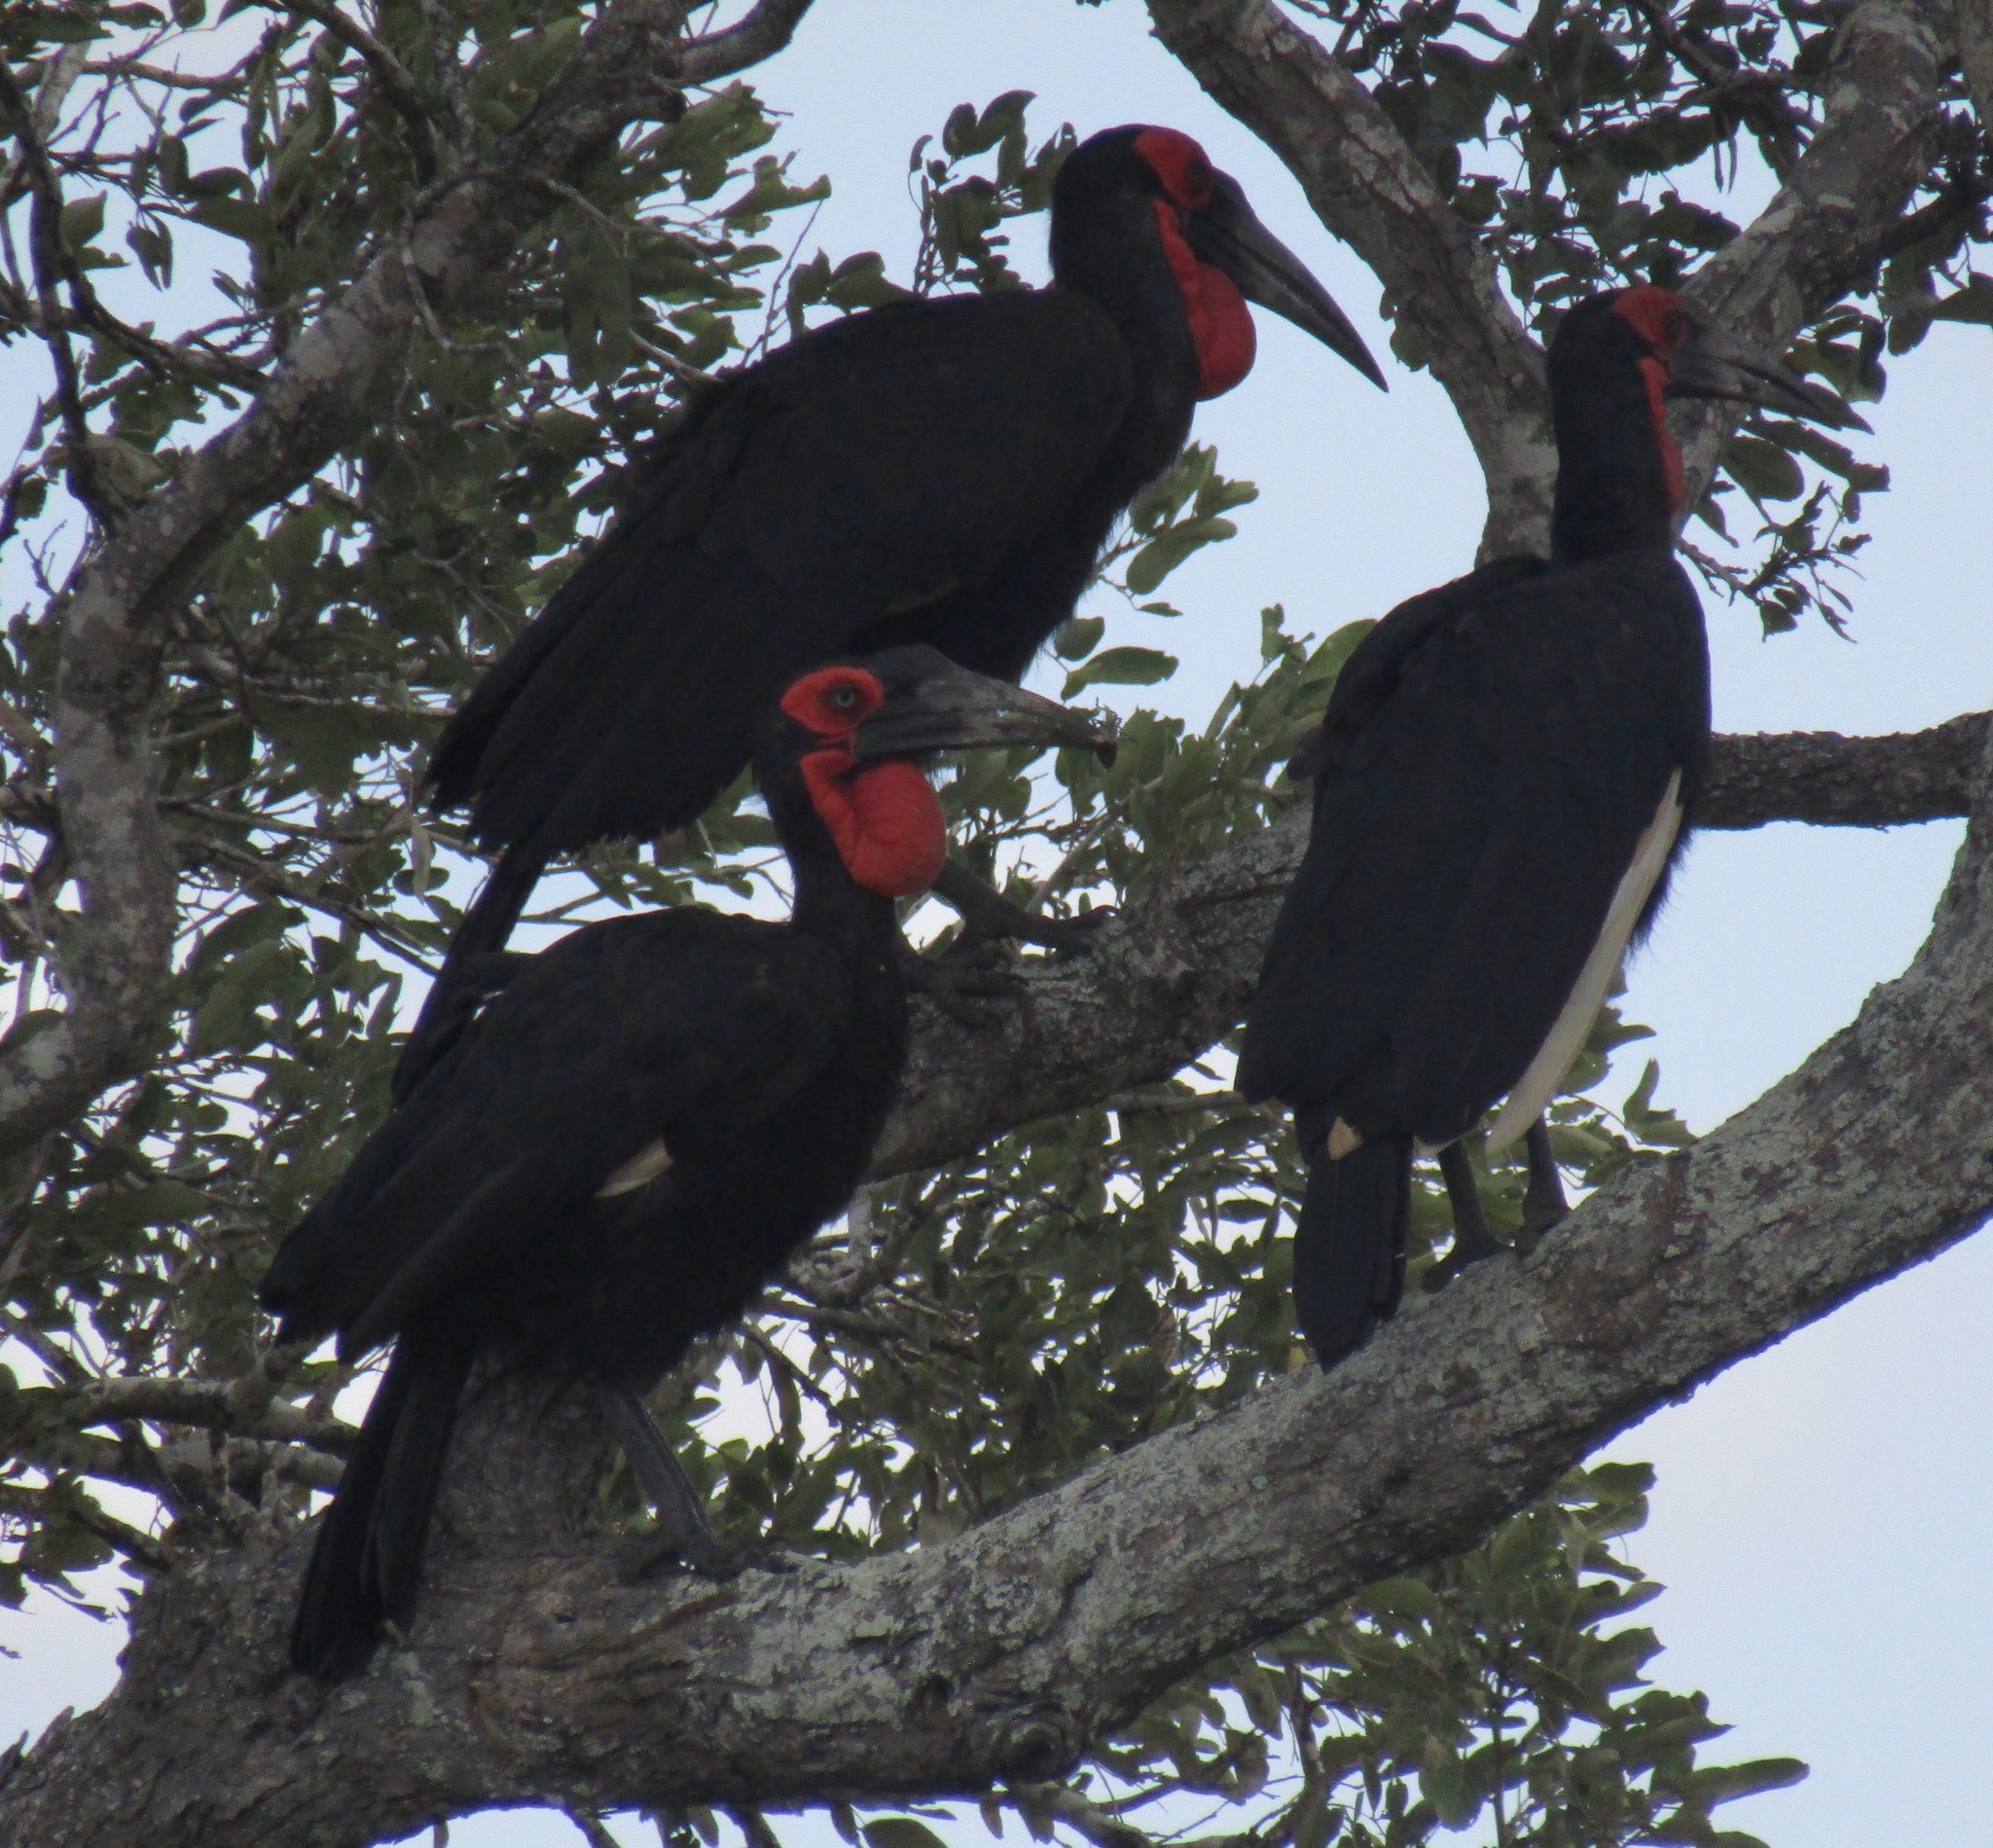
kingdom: Animalia
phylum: Chordata
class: Aves
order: Bucerotiformes
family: Bucorvidae
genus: Bucorvus
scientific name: Bucorvus leadbeateri
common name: Southern ground-hornbill
